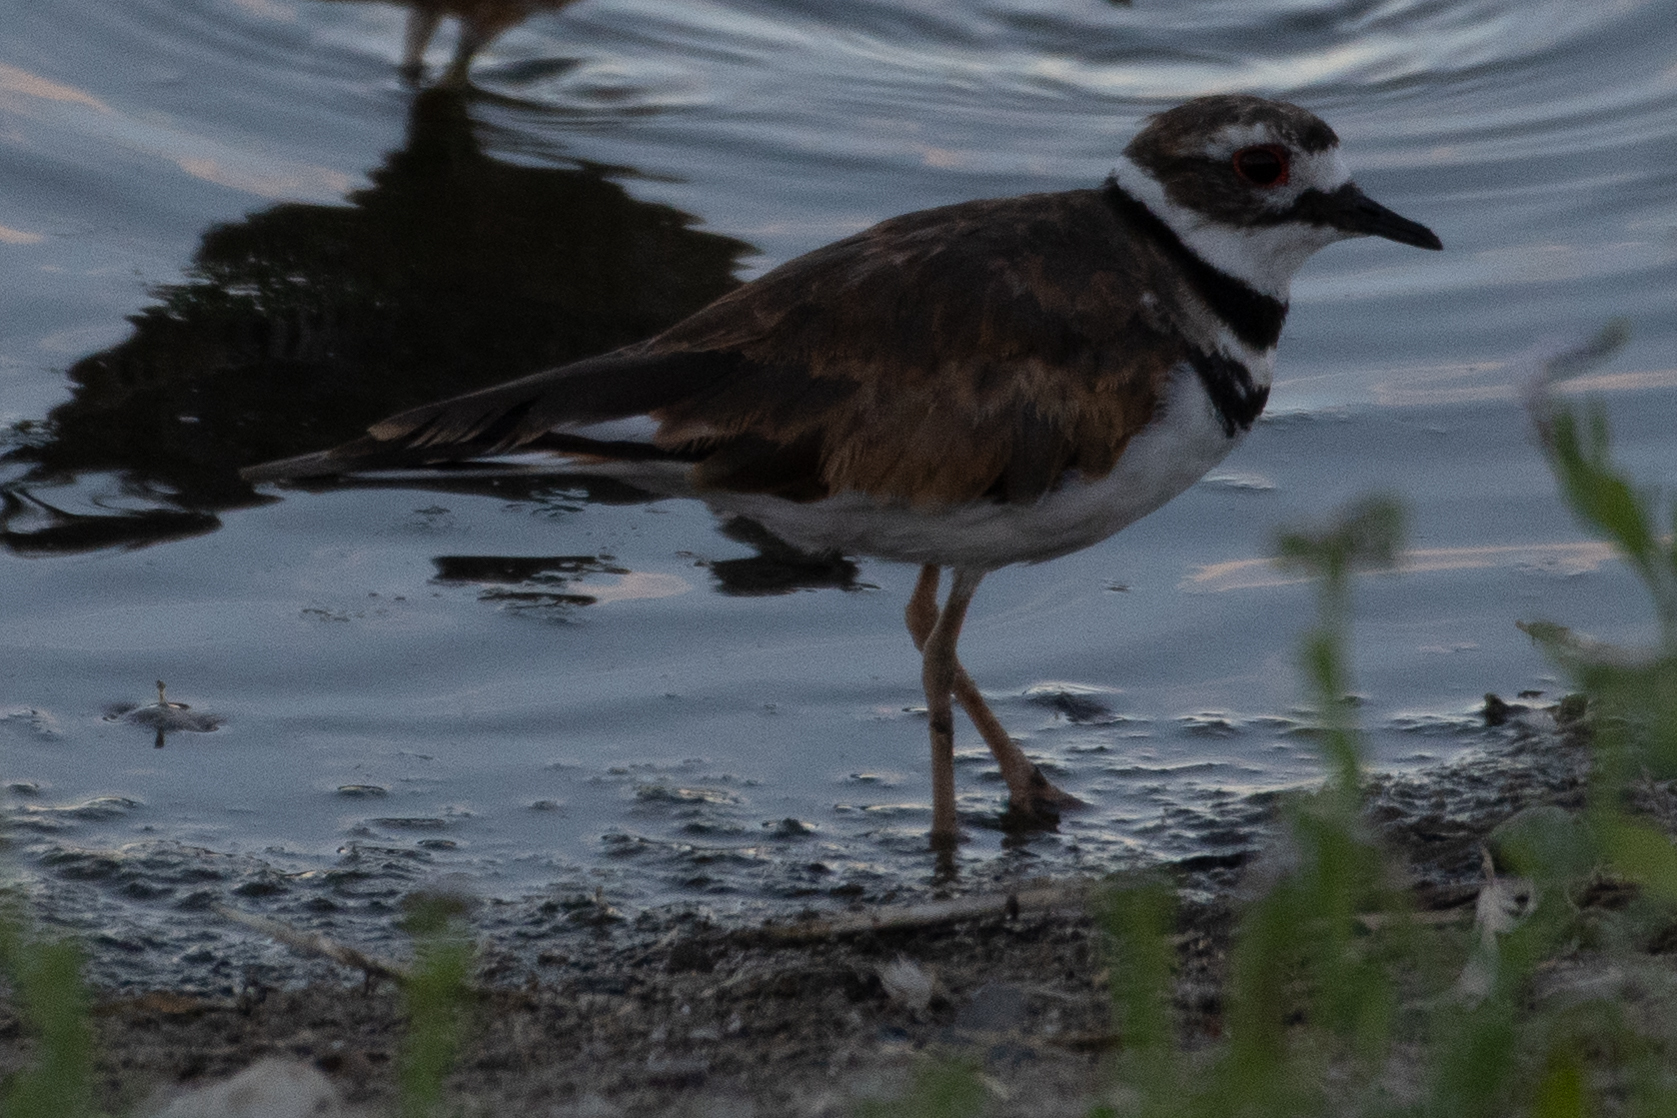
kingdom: Animalia
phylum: Chordata
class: Aves
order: Charadriiformes
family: Charadriidae
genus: Charadrius
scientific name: Charadrius vociferus
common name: Killdeer
